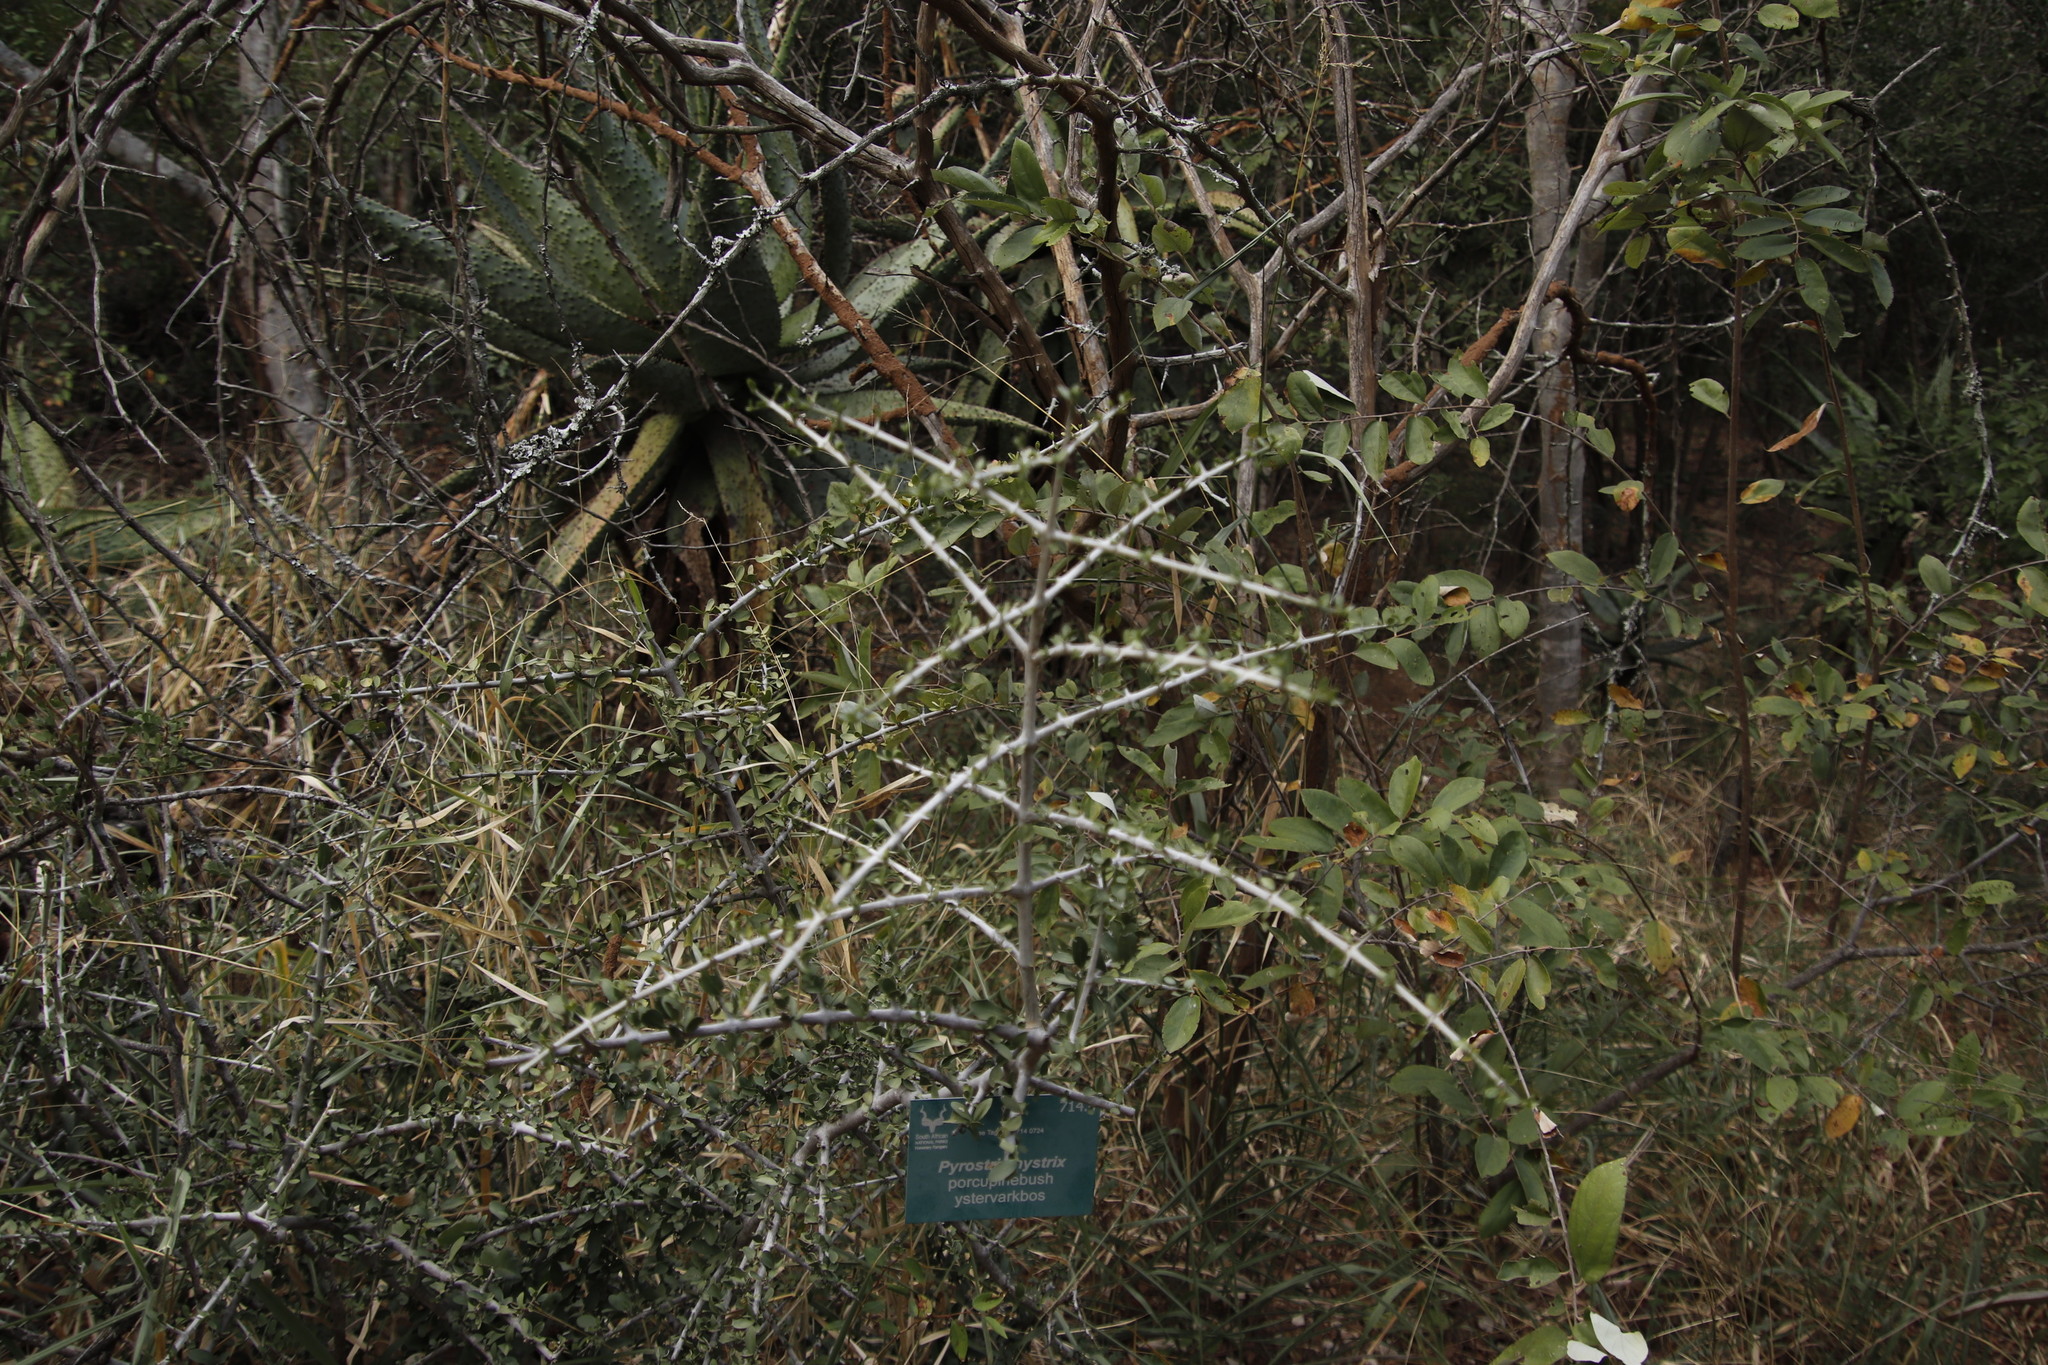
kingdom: Plantae
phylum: Tracheophyta
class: Magnoliopsida
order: Gentianales
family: Rubiaceae
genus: Pyrostria
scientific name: Pyrostria hystrix
